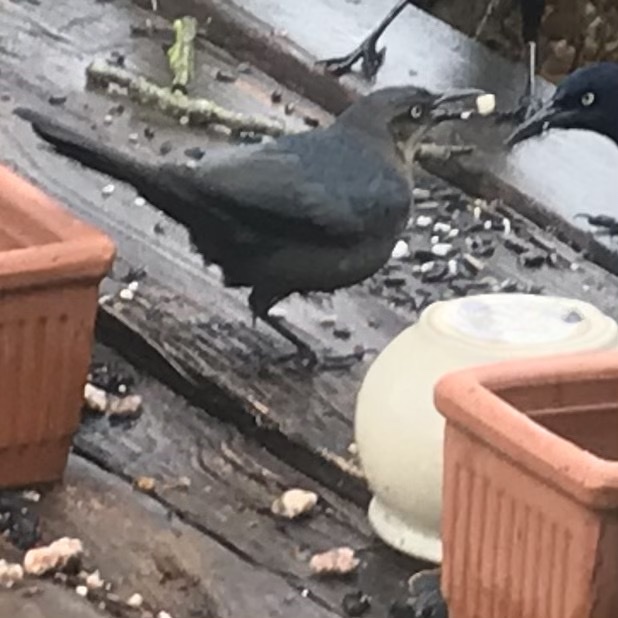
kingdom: Animalia
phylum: Chordata
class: Aves
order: Passeriformes
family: Icteridae
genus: Quiscalus
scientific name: Quiscalus mexicanus
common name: Great-tailed grackle
